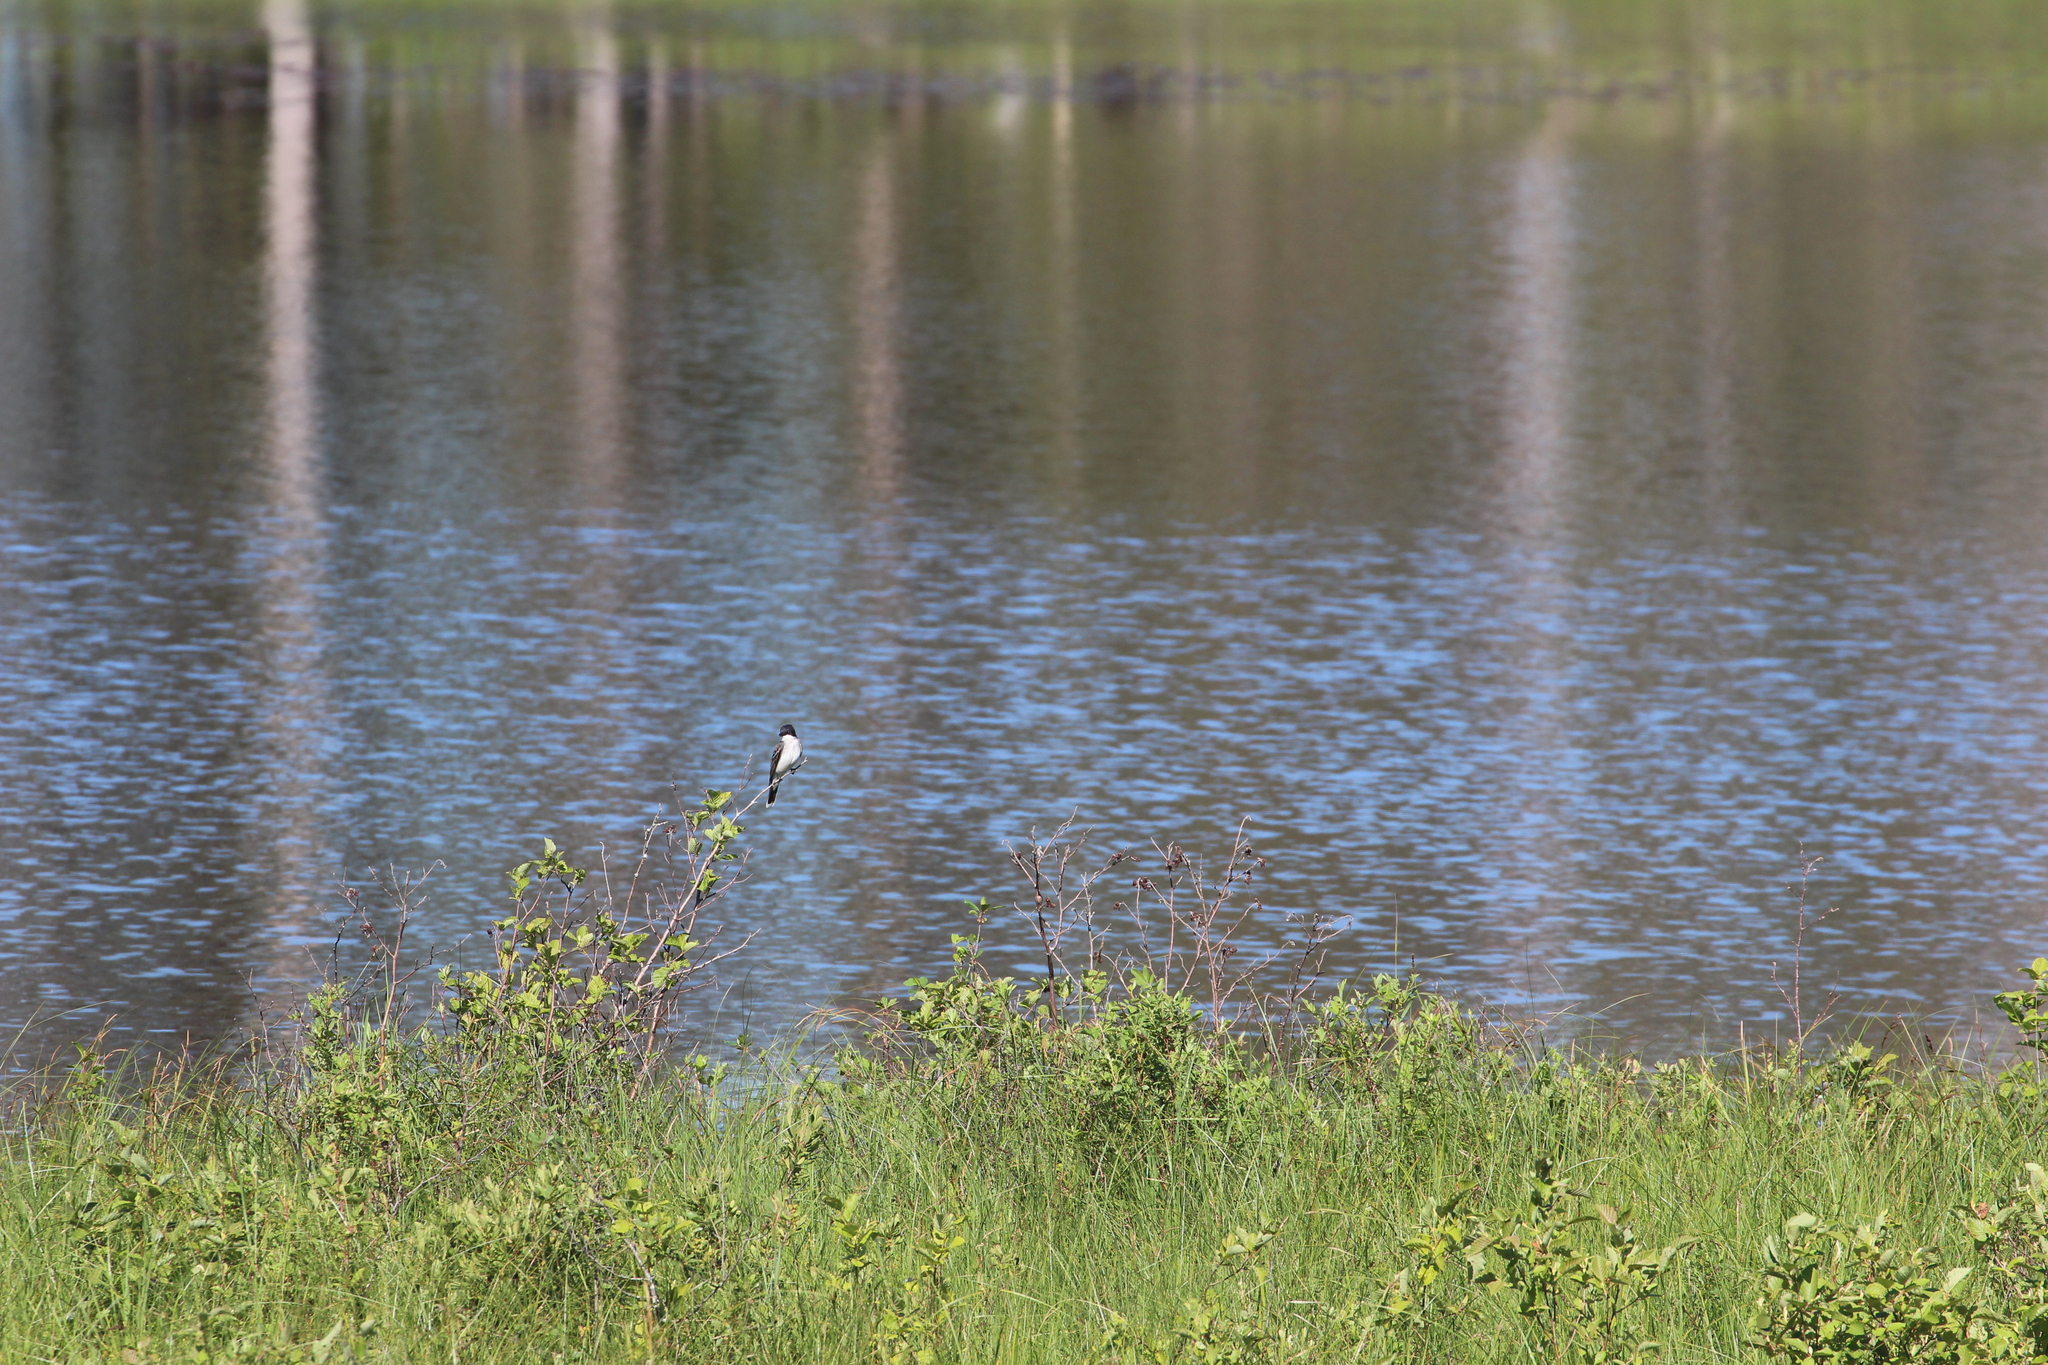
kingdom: Animalia
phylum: Chordata
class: Aves
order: Passeriformes
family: Tyrannidae
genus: Tyrannus
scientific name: Tyrannus tyrannus
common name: Eastern kingbird
